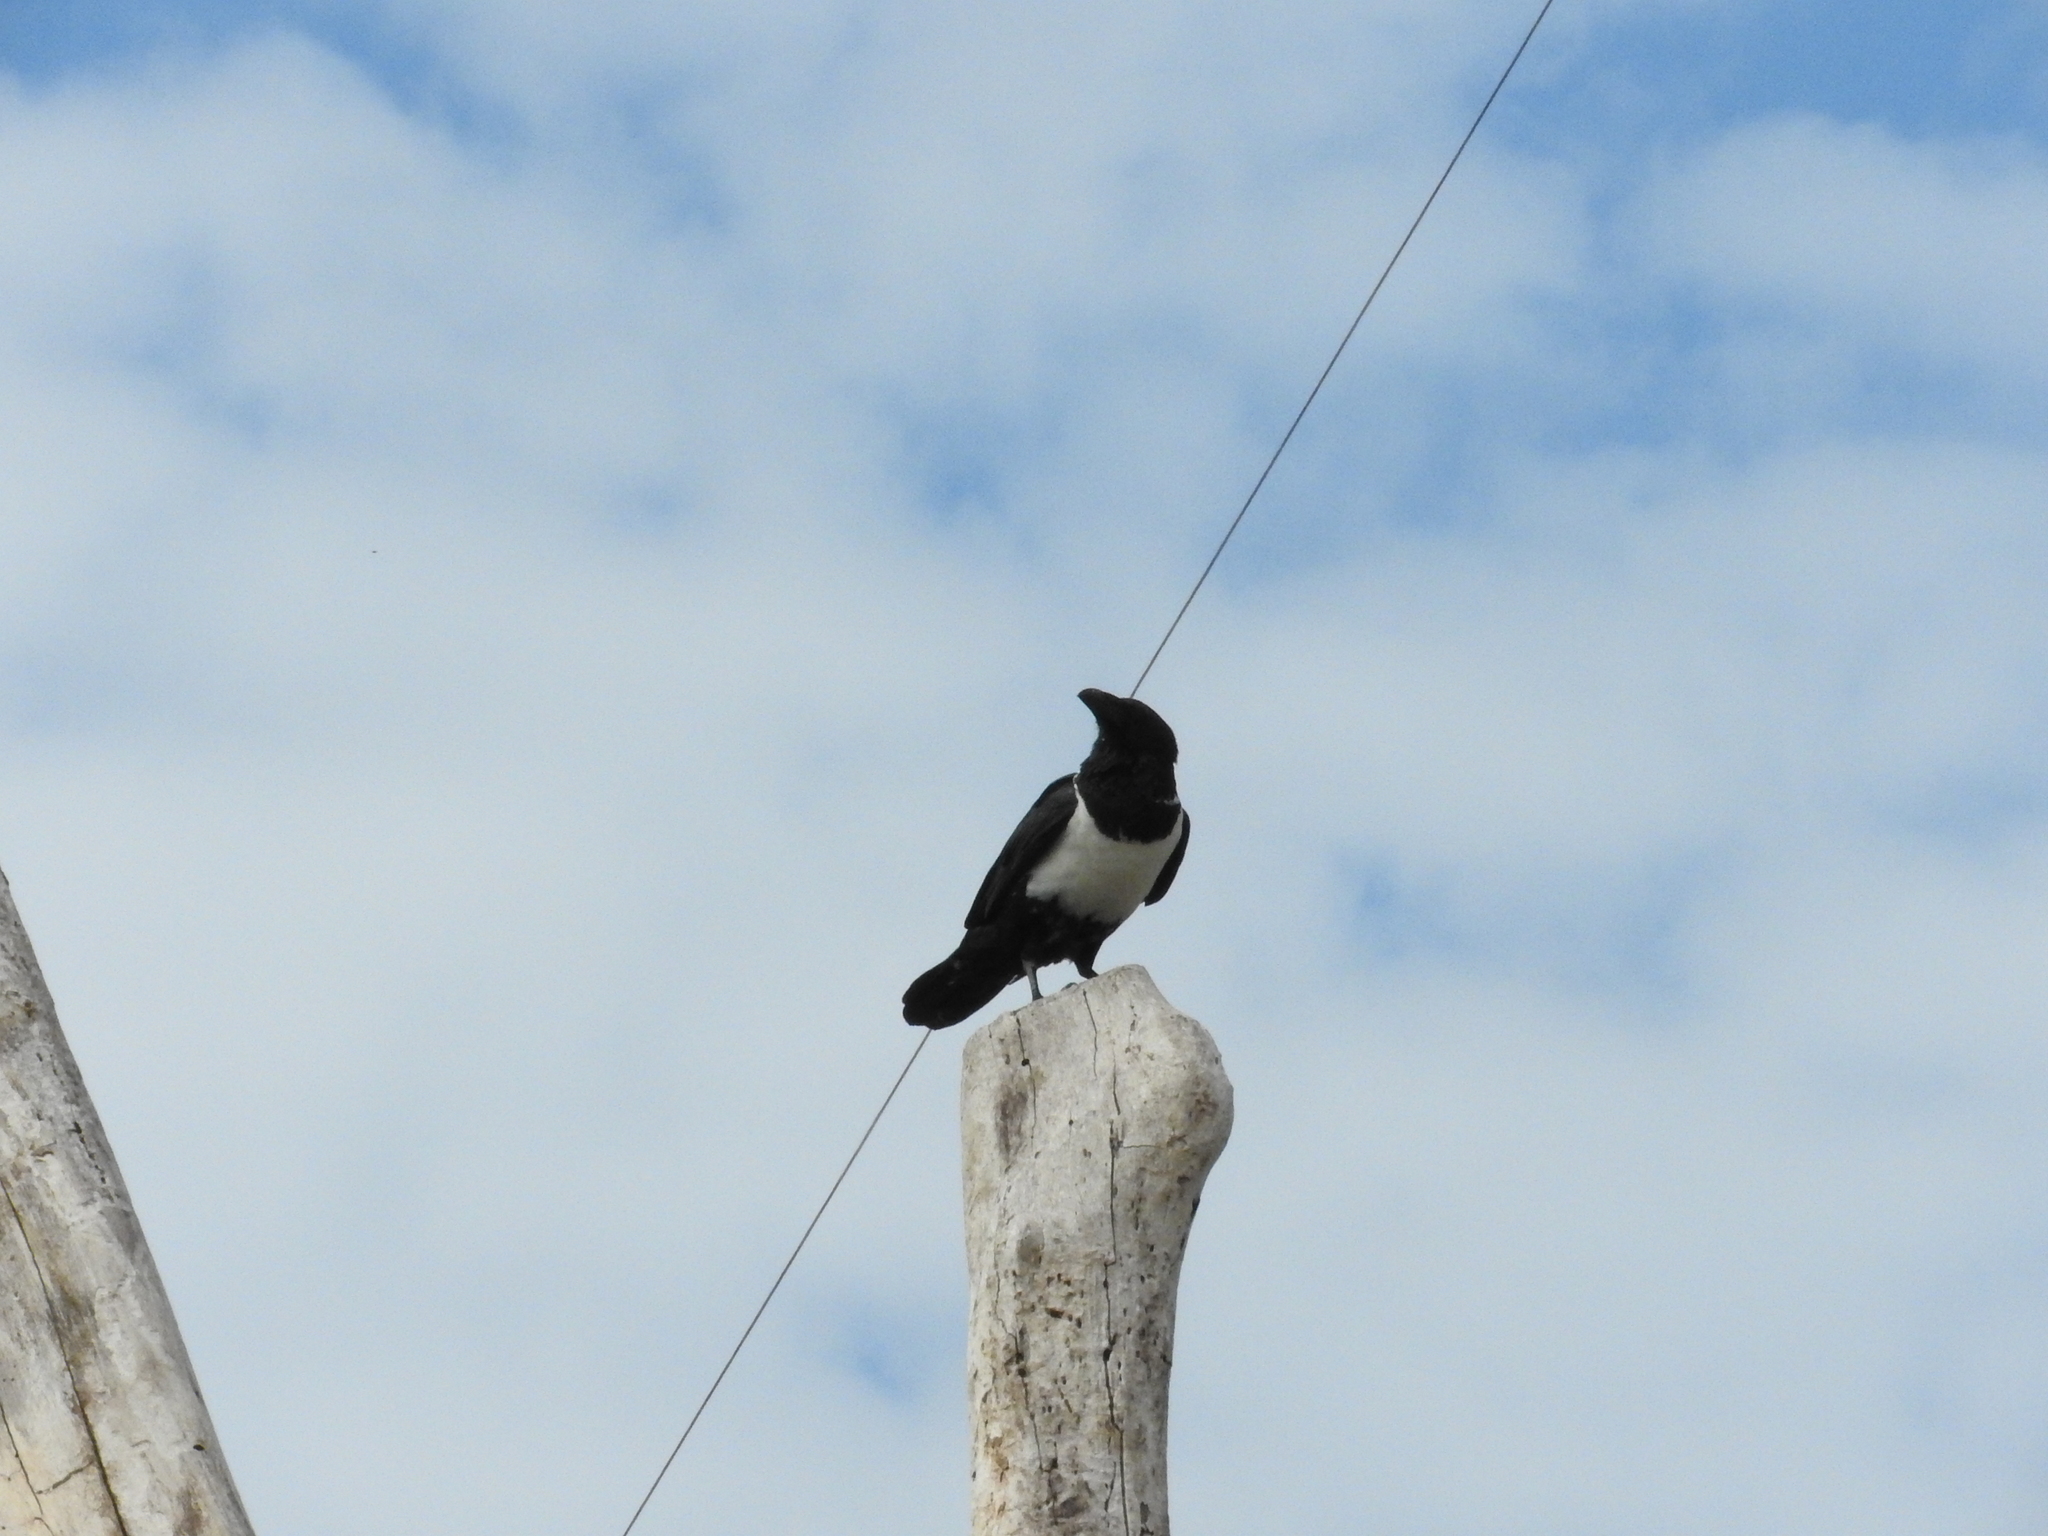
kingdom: Animalia
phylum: Chordata
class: Aves
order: Passeriformes
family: Corvidae
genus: Corvus
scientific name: Corvus albus
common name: Pied crow
